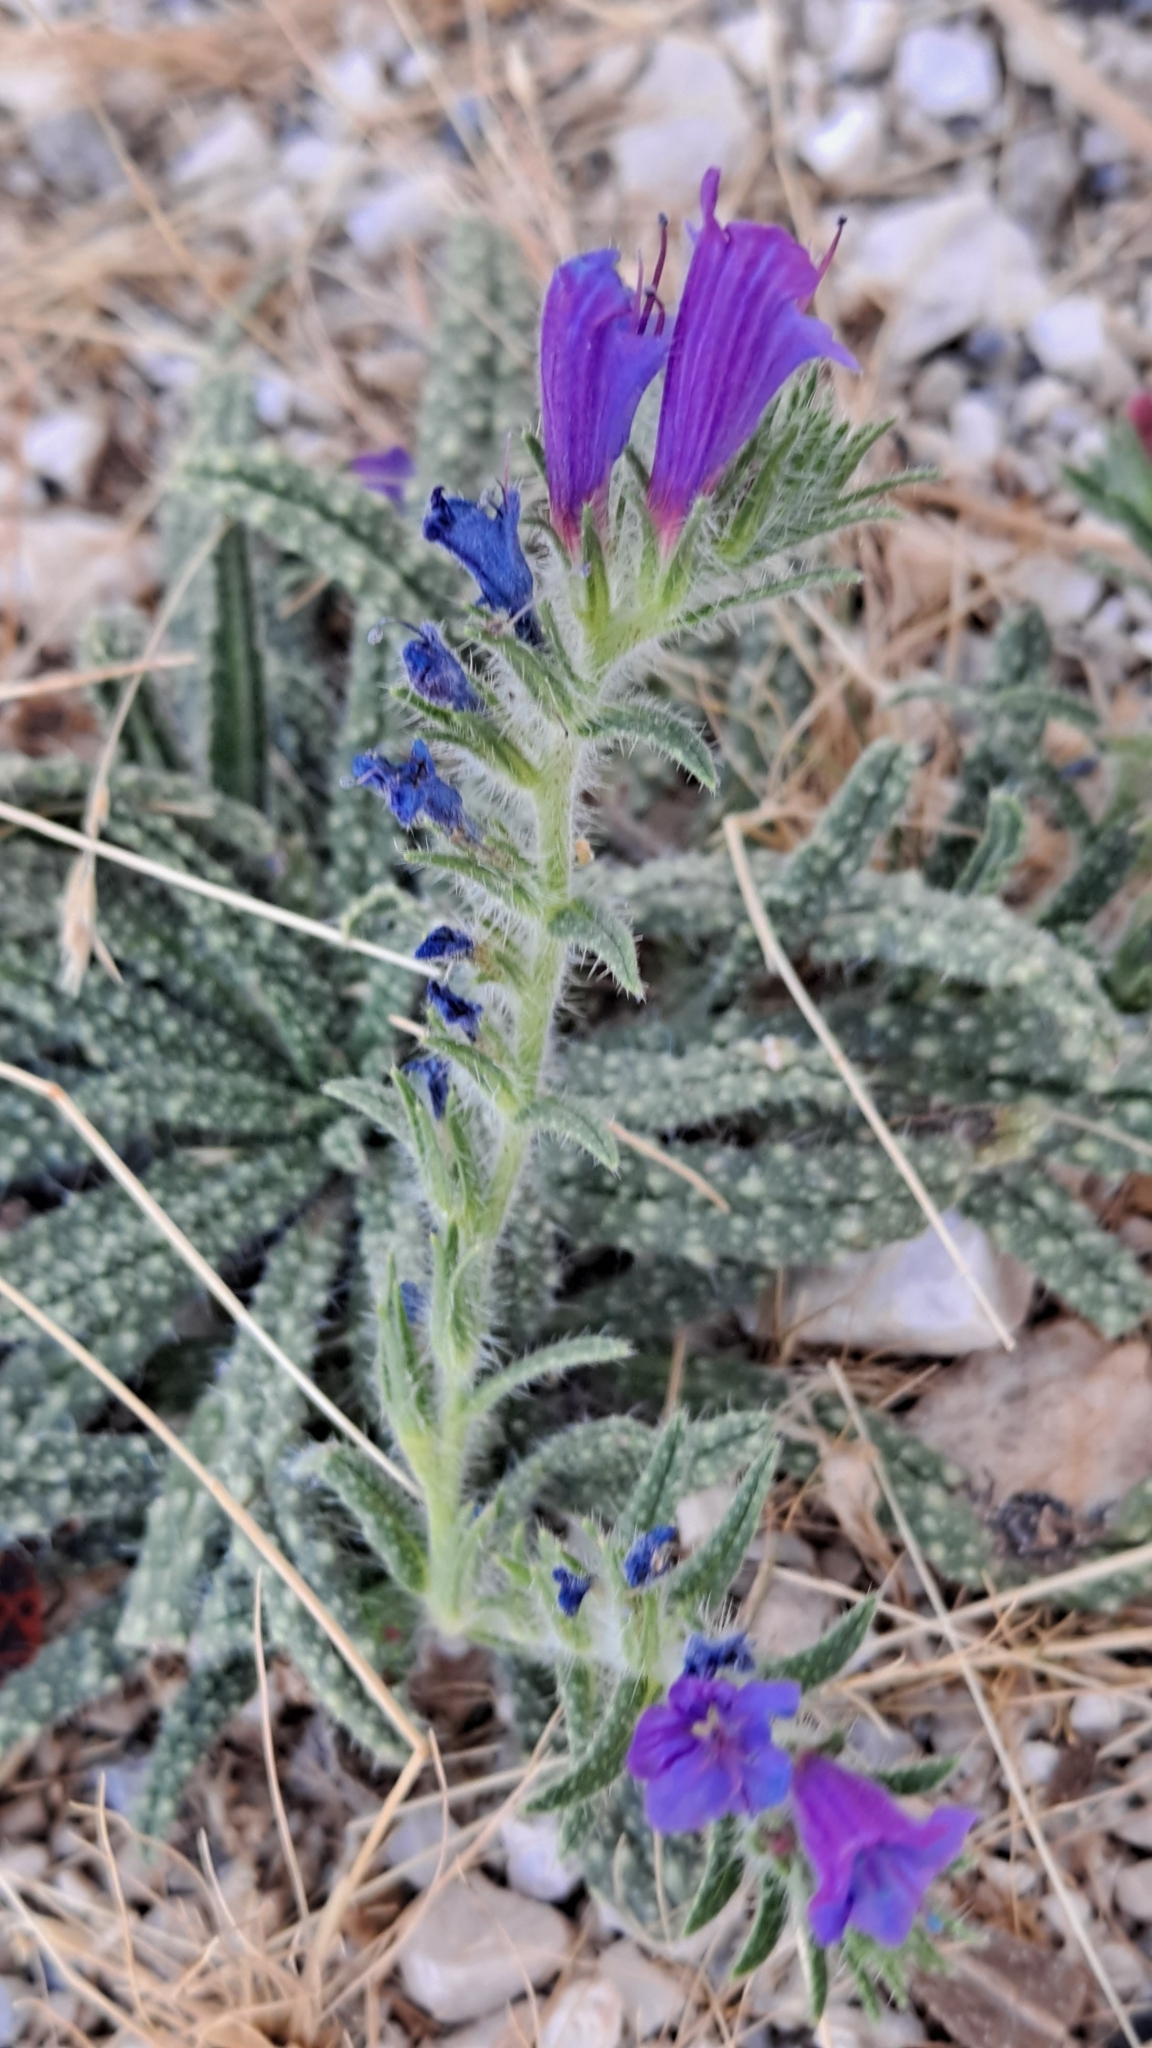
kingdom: Plantae
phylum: Tracheophyta
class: Magnoliopsida
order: Boraginales
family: Boraginaceae
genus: Echium
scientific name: Echium creticum
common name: Cretan viper's bugloss
